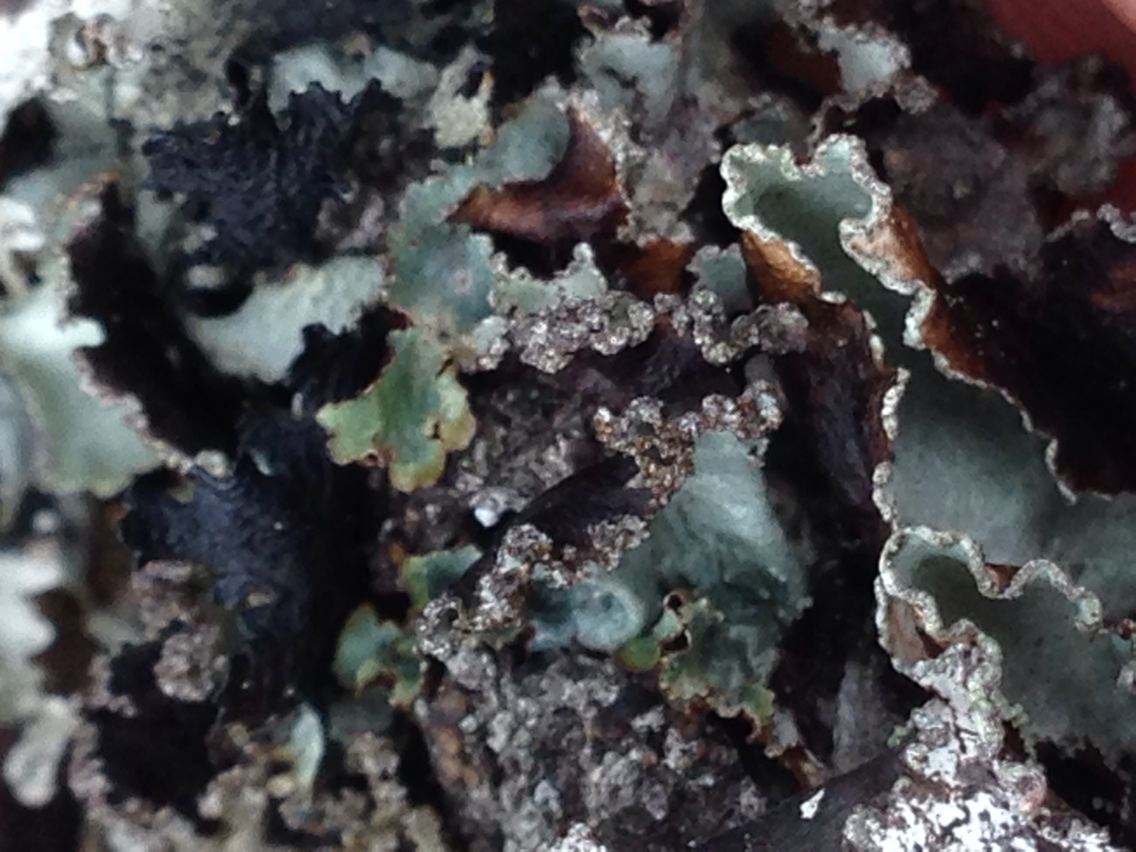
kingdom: Fungi
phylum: Ascomycota
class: Lecanoromycetes
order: Lecanorales
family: Parmeliaceae
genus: Platismatia
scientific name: Platismatia glauca
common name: Varied rag lichen
